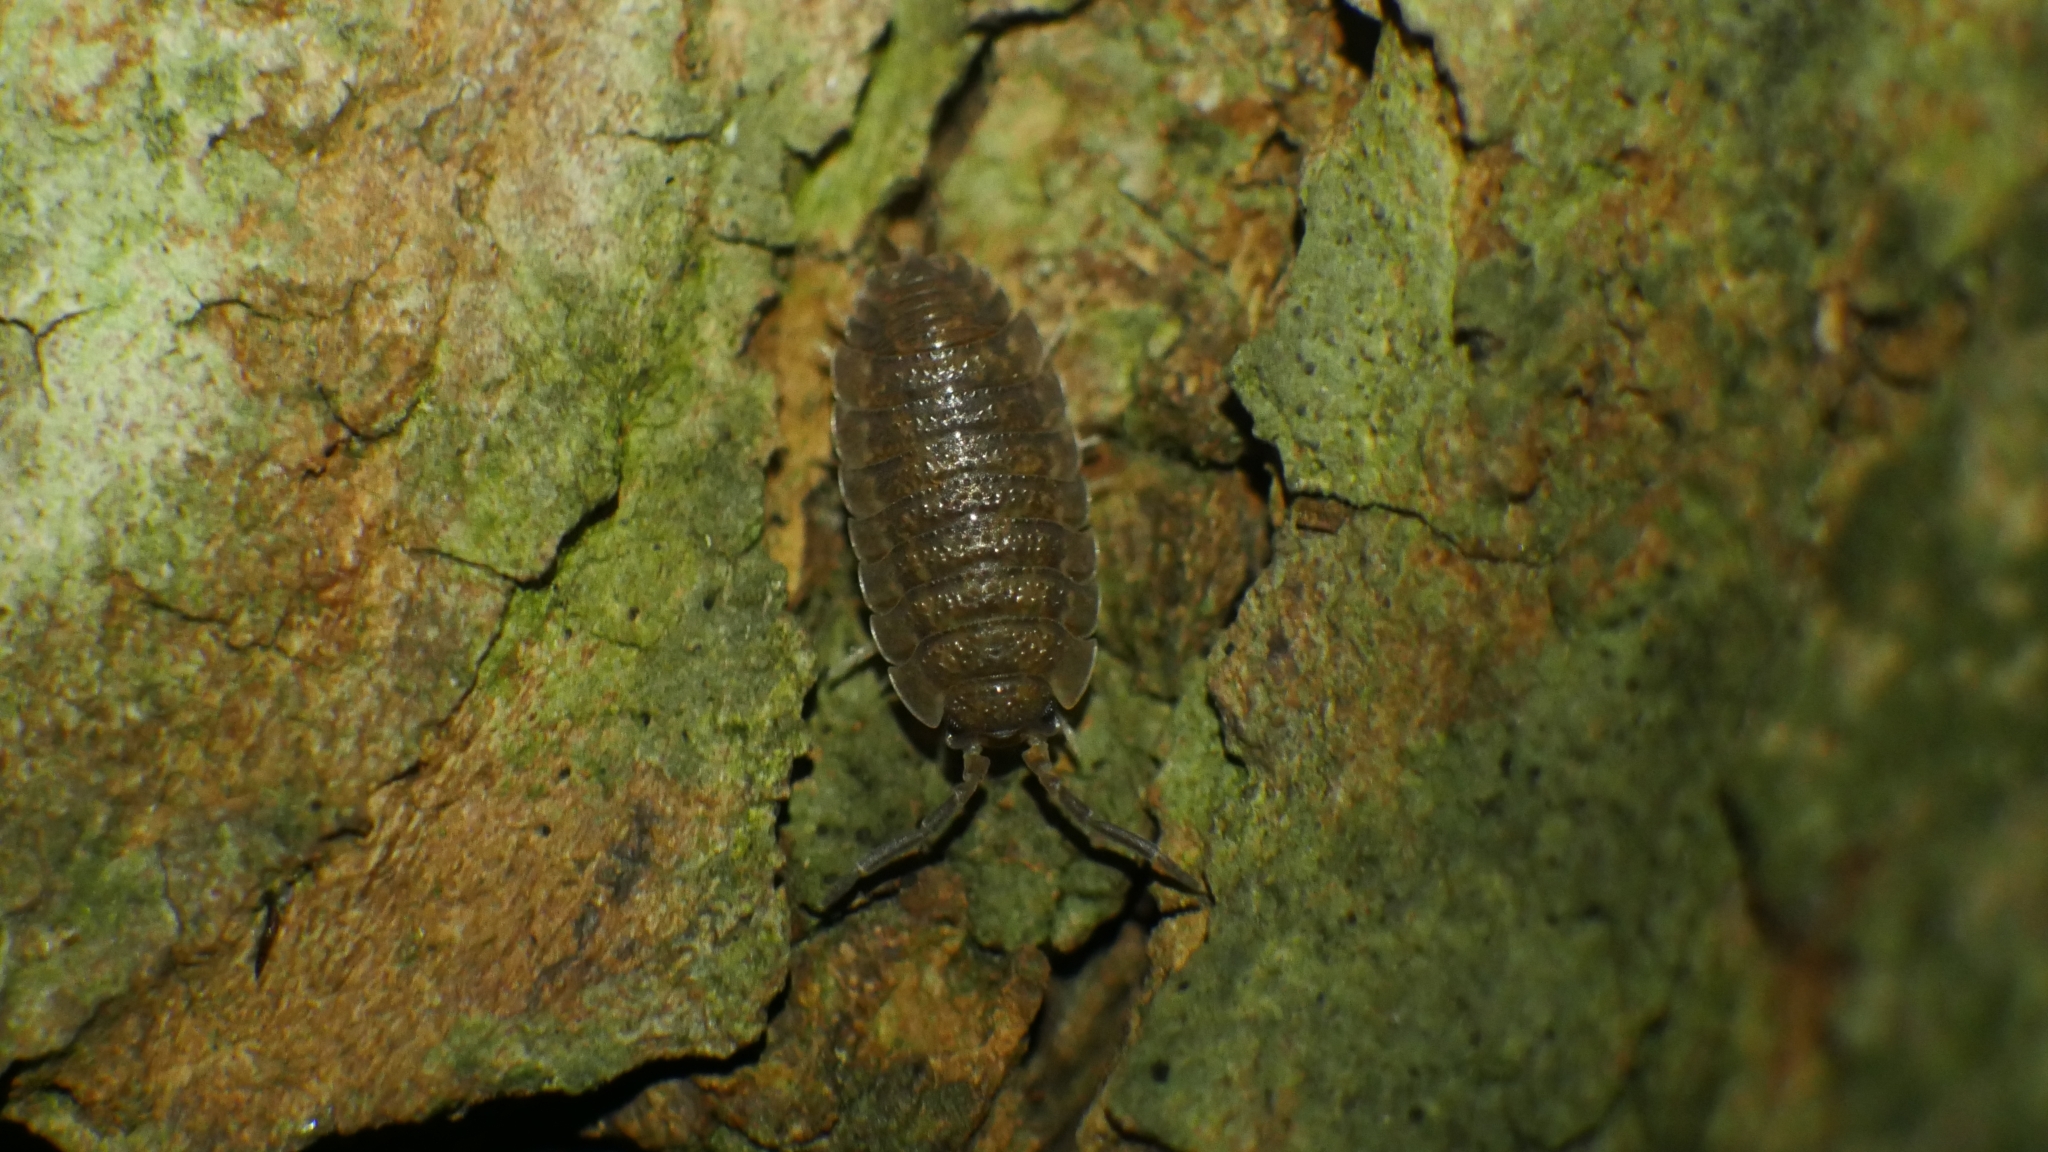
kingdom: Animalia
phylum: Arthropoda
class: Malacostraca
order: Isopoda
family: Porcellionidae
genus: Porcellio
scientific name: Porcellio scaber
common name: Common rough woodlouse
